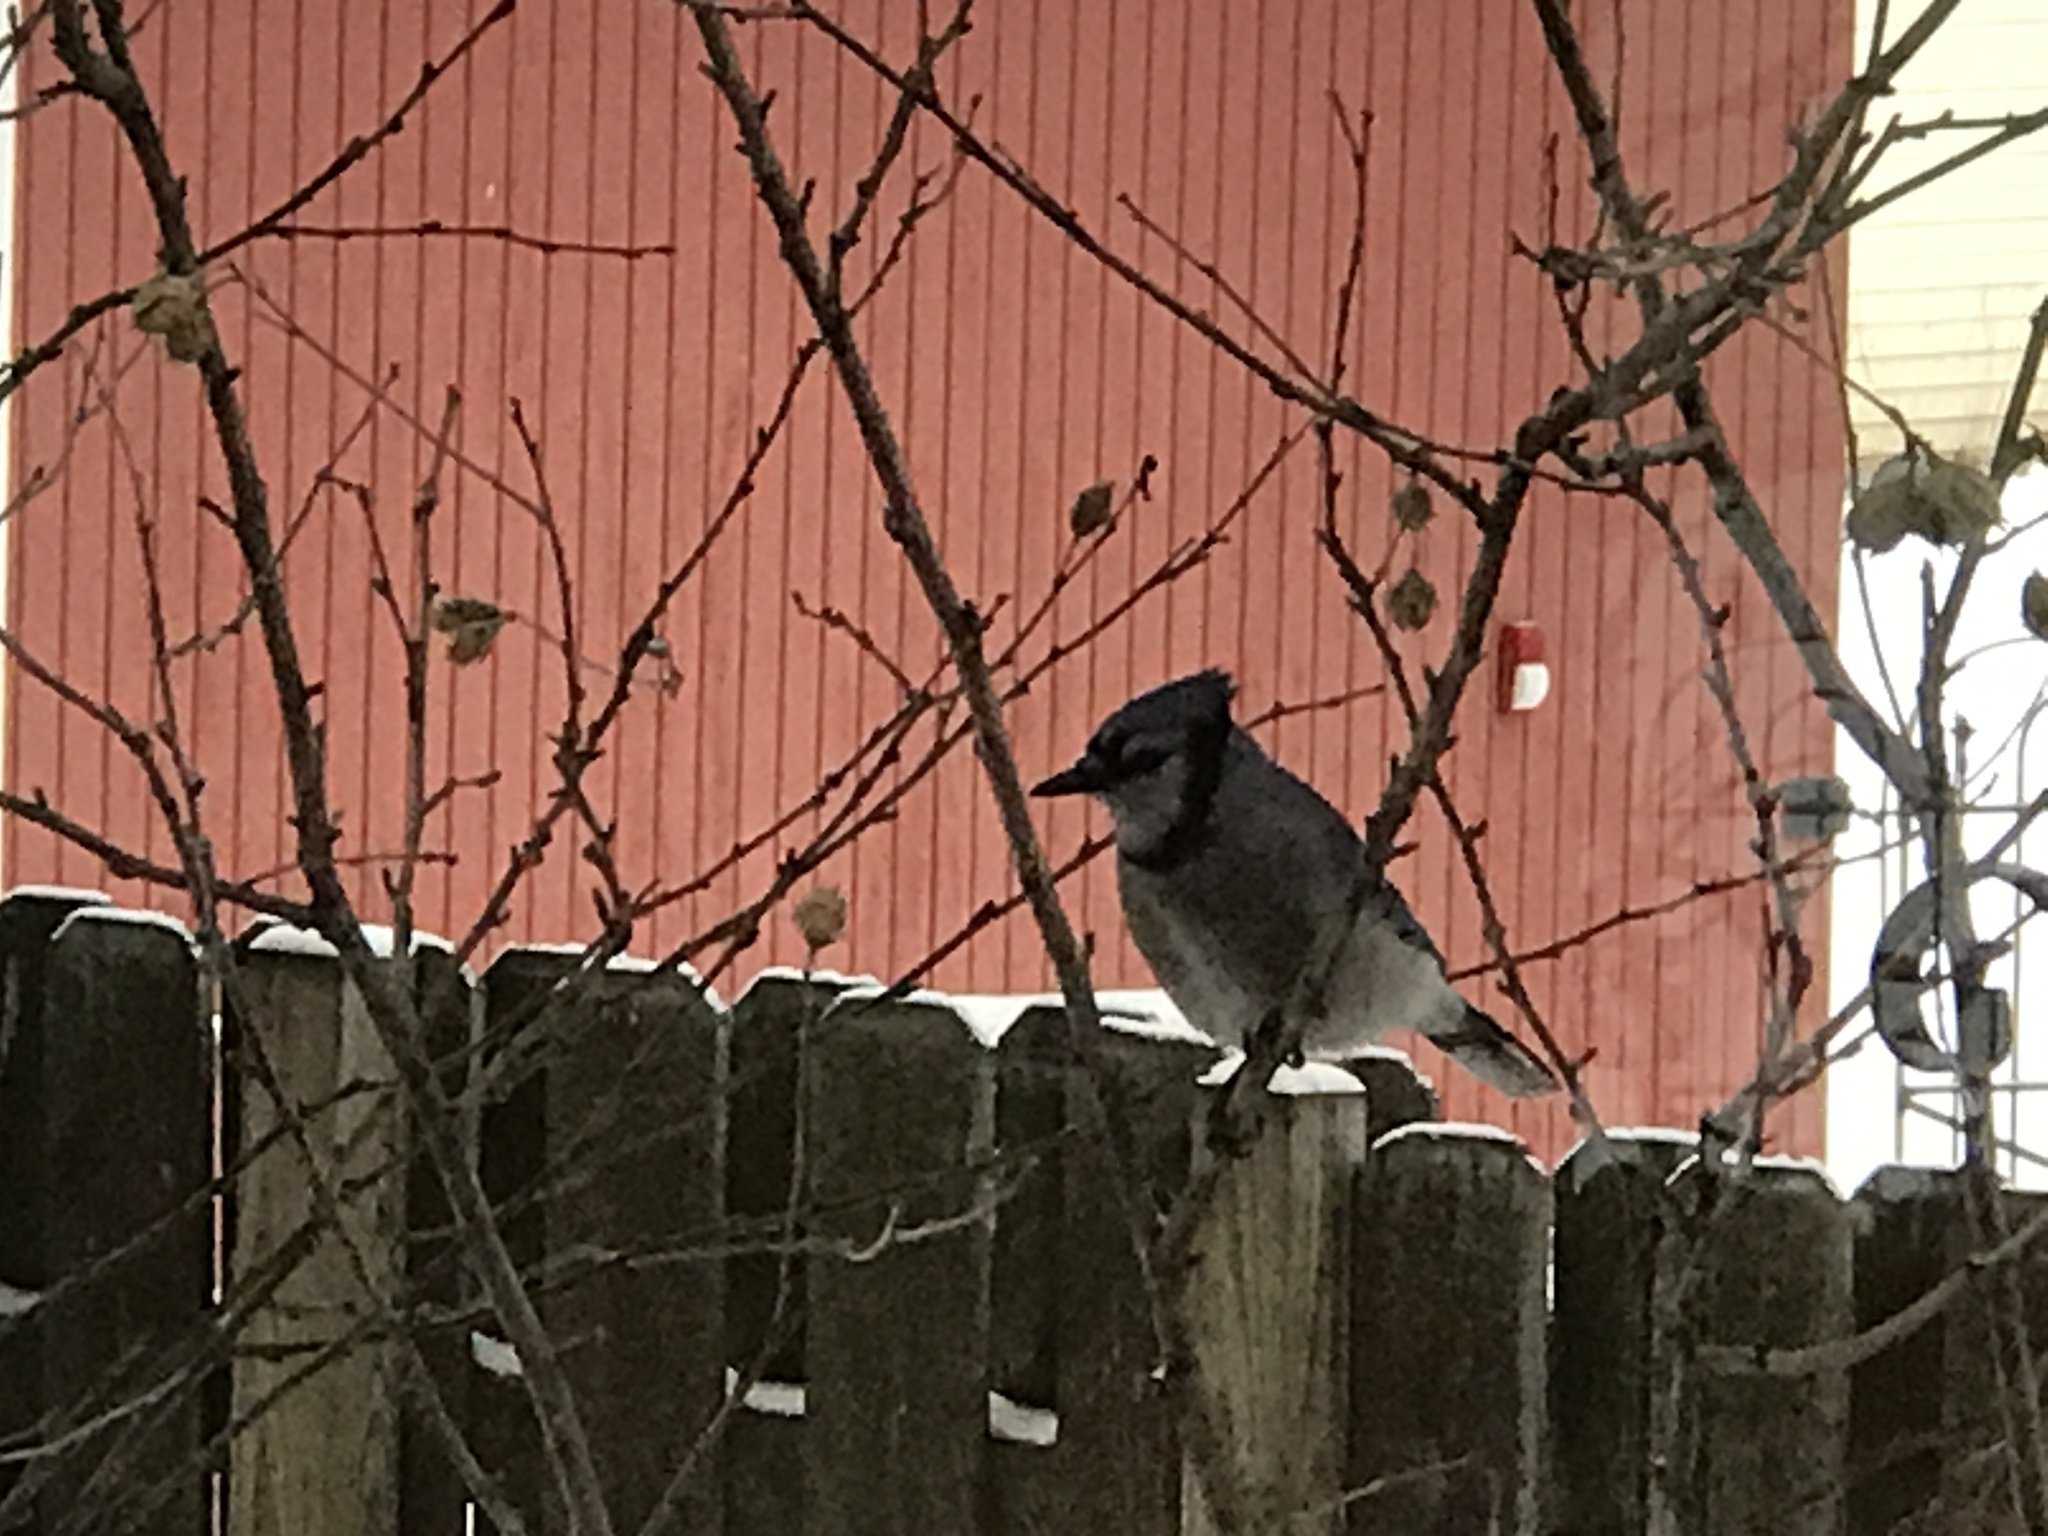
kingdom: Animalia
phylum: Chordata
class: Aves
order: Passeriformes
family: Corvidae
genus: Cyanocitta
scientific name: Cyanocitta cristata
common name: Blue jay
